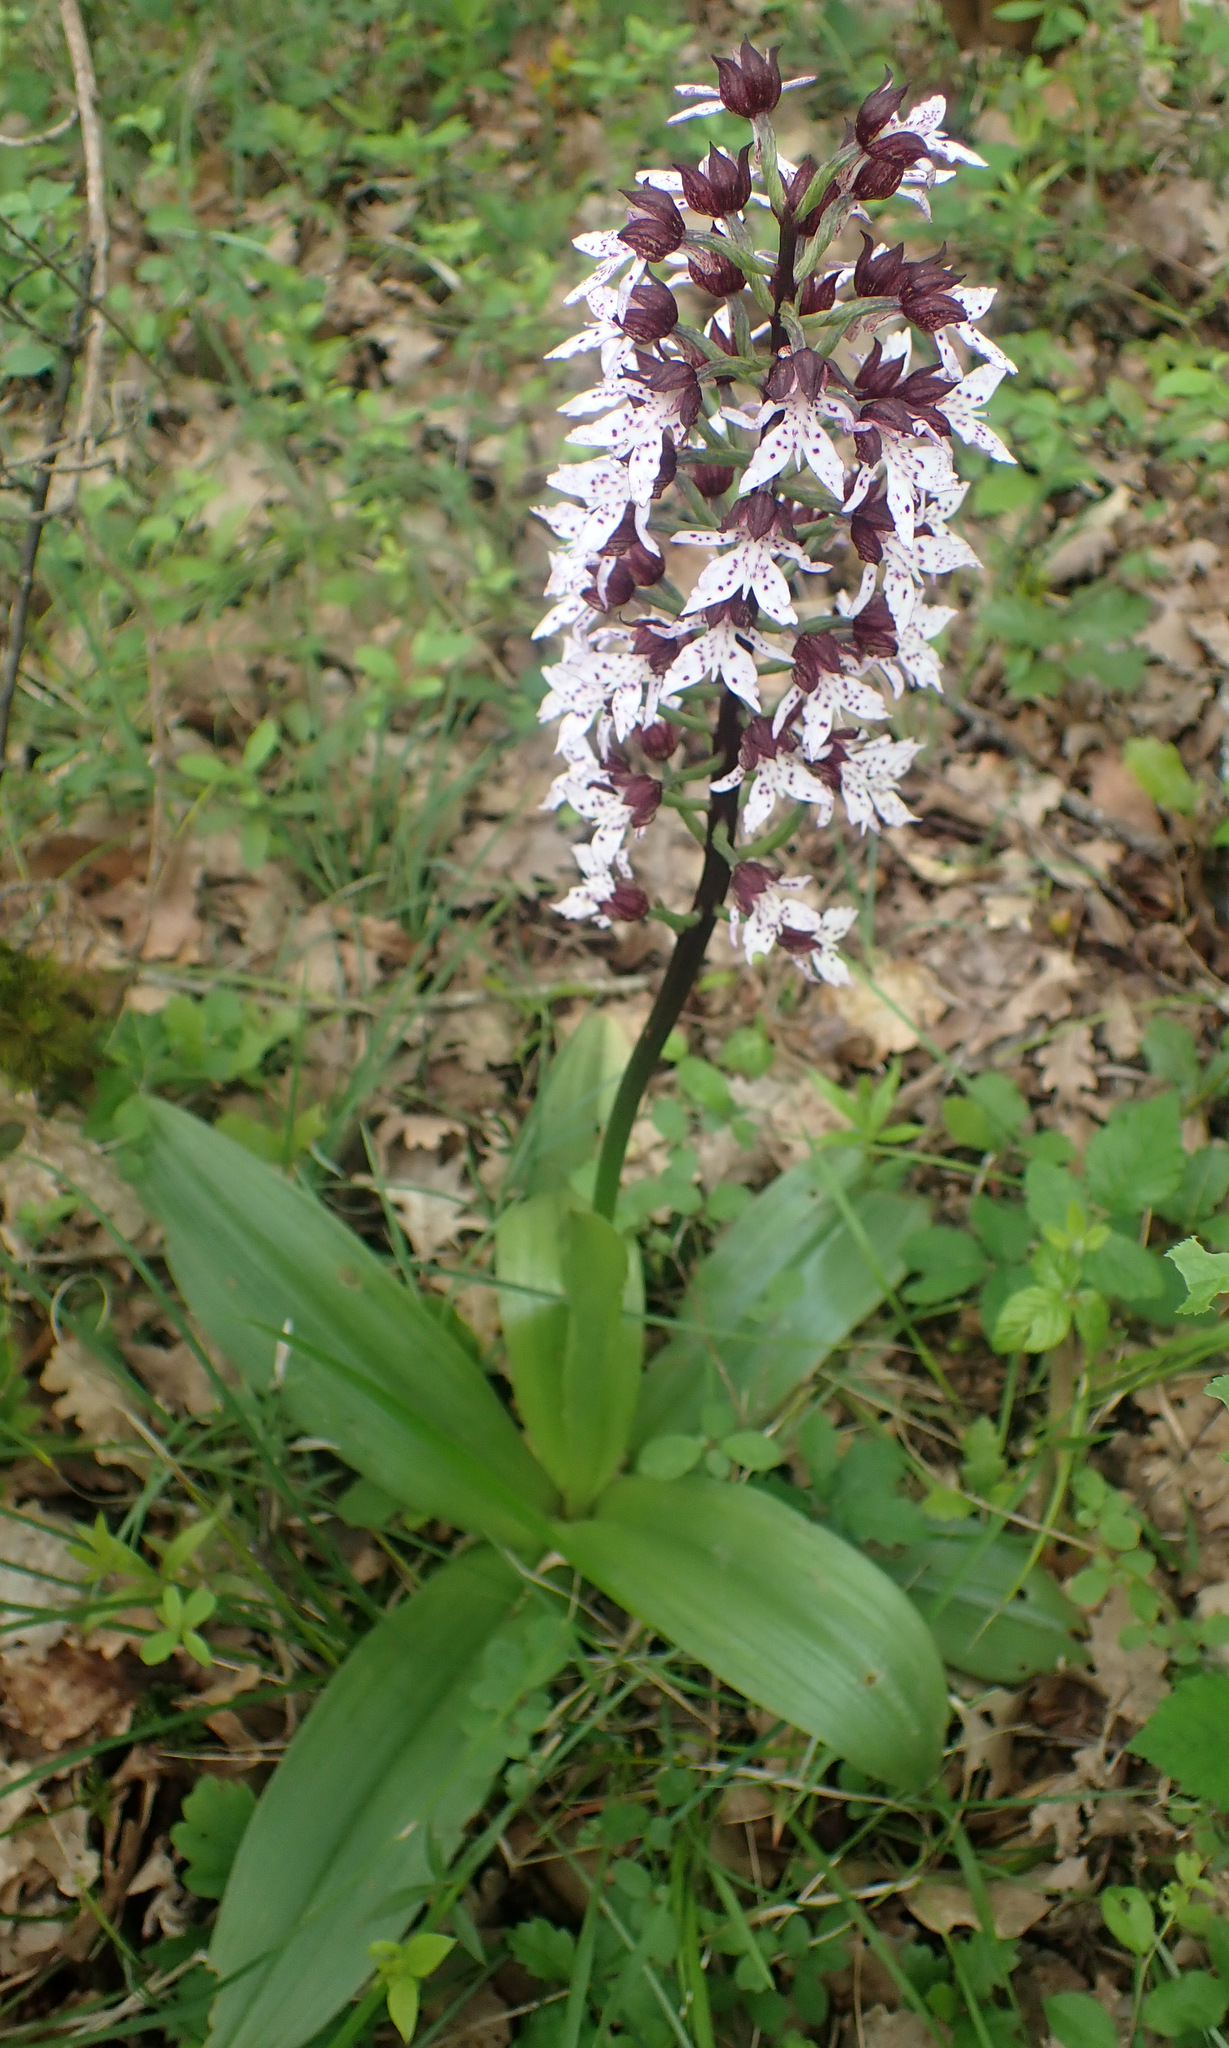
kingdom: Plantae
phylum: Tracheophyta
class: Liliopsida
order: Asparagales
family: Orchidaceae
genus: Orchis
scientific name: Orchis purpurea
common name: Lady orchid
